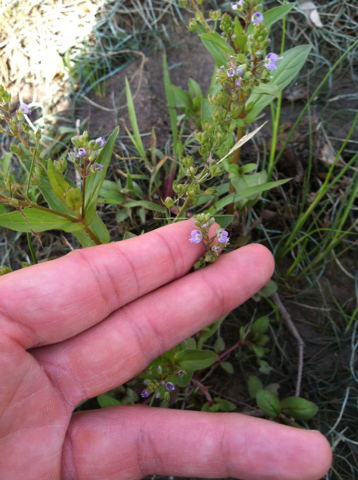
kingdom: Plantae
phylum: Tracheophyta
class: Magnoliopsida
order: Lamiales
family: Plantaginaceae
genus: Veronica
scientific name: Veronica anagallis-aquatica
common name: Water speedwell
